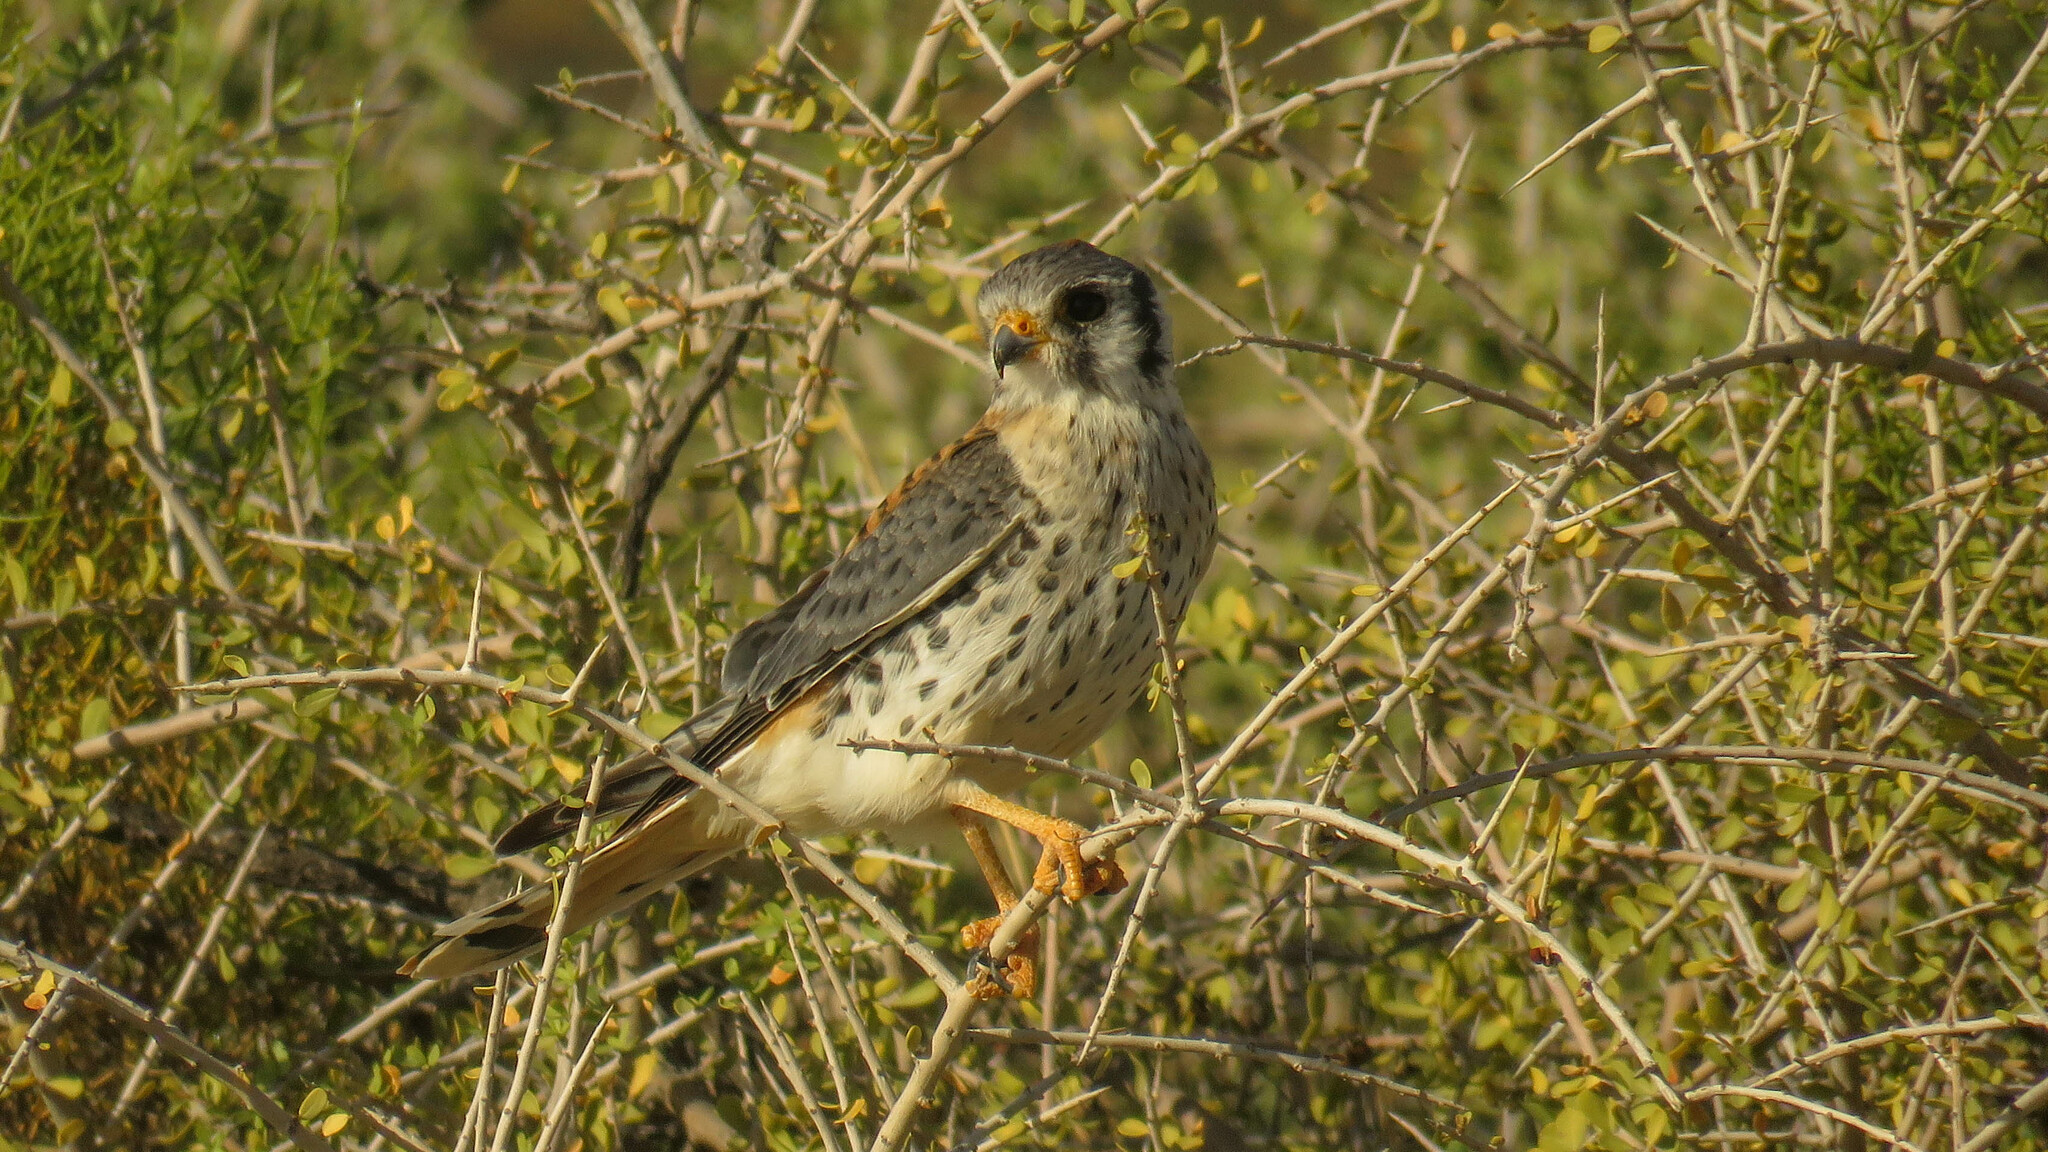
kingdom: Animalia
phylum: Chordata
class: Aves
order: Falconiformes
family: Falconidae
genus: Falco
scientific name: Falco sparverius
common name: American kestrel
